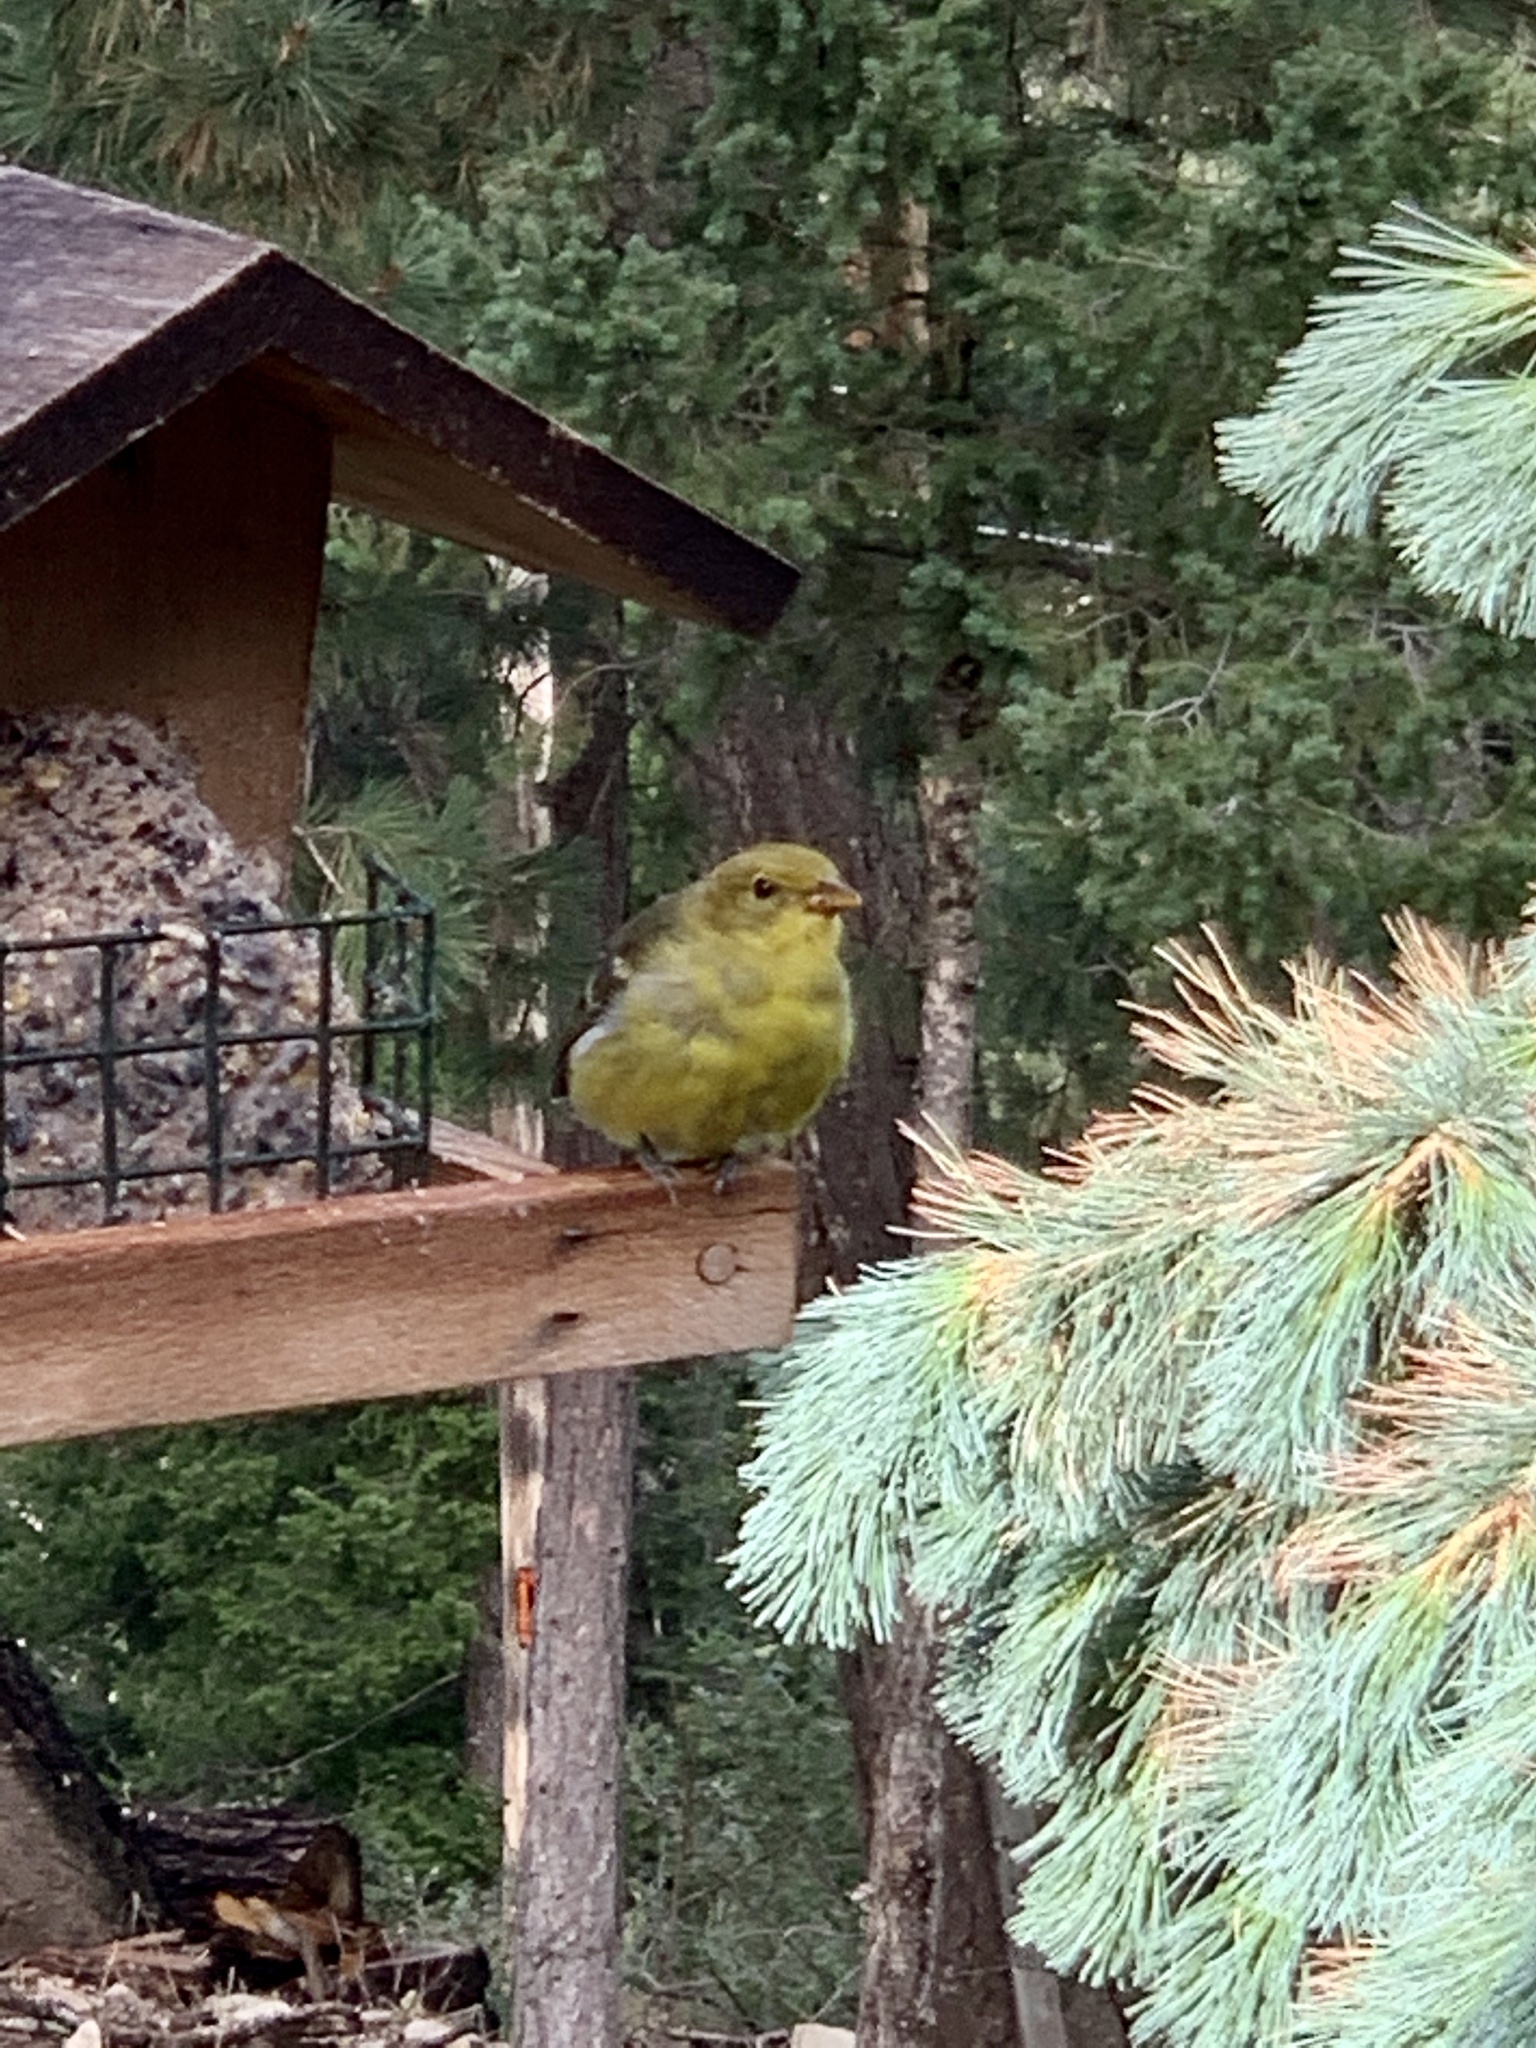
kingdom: Animalia
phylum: Chordata
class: Aves
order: Passeriformes
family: Cardinalidae
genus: Piranga
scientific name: Piranga ludoviciana
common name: Western tanager
